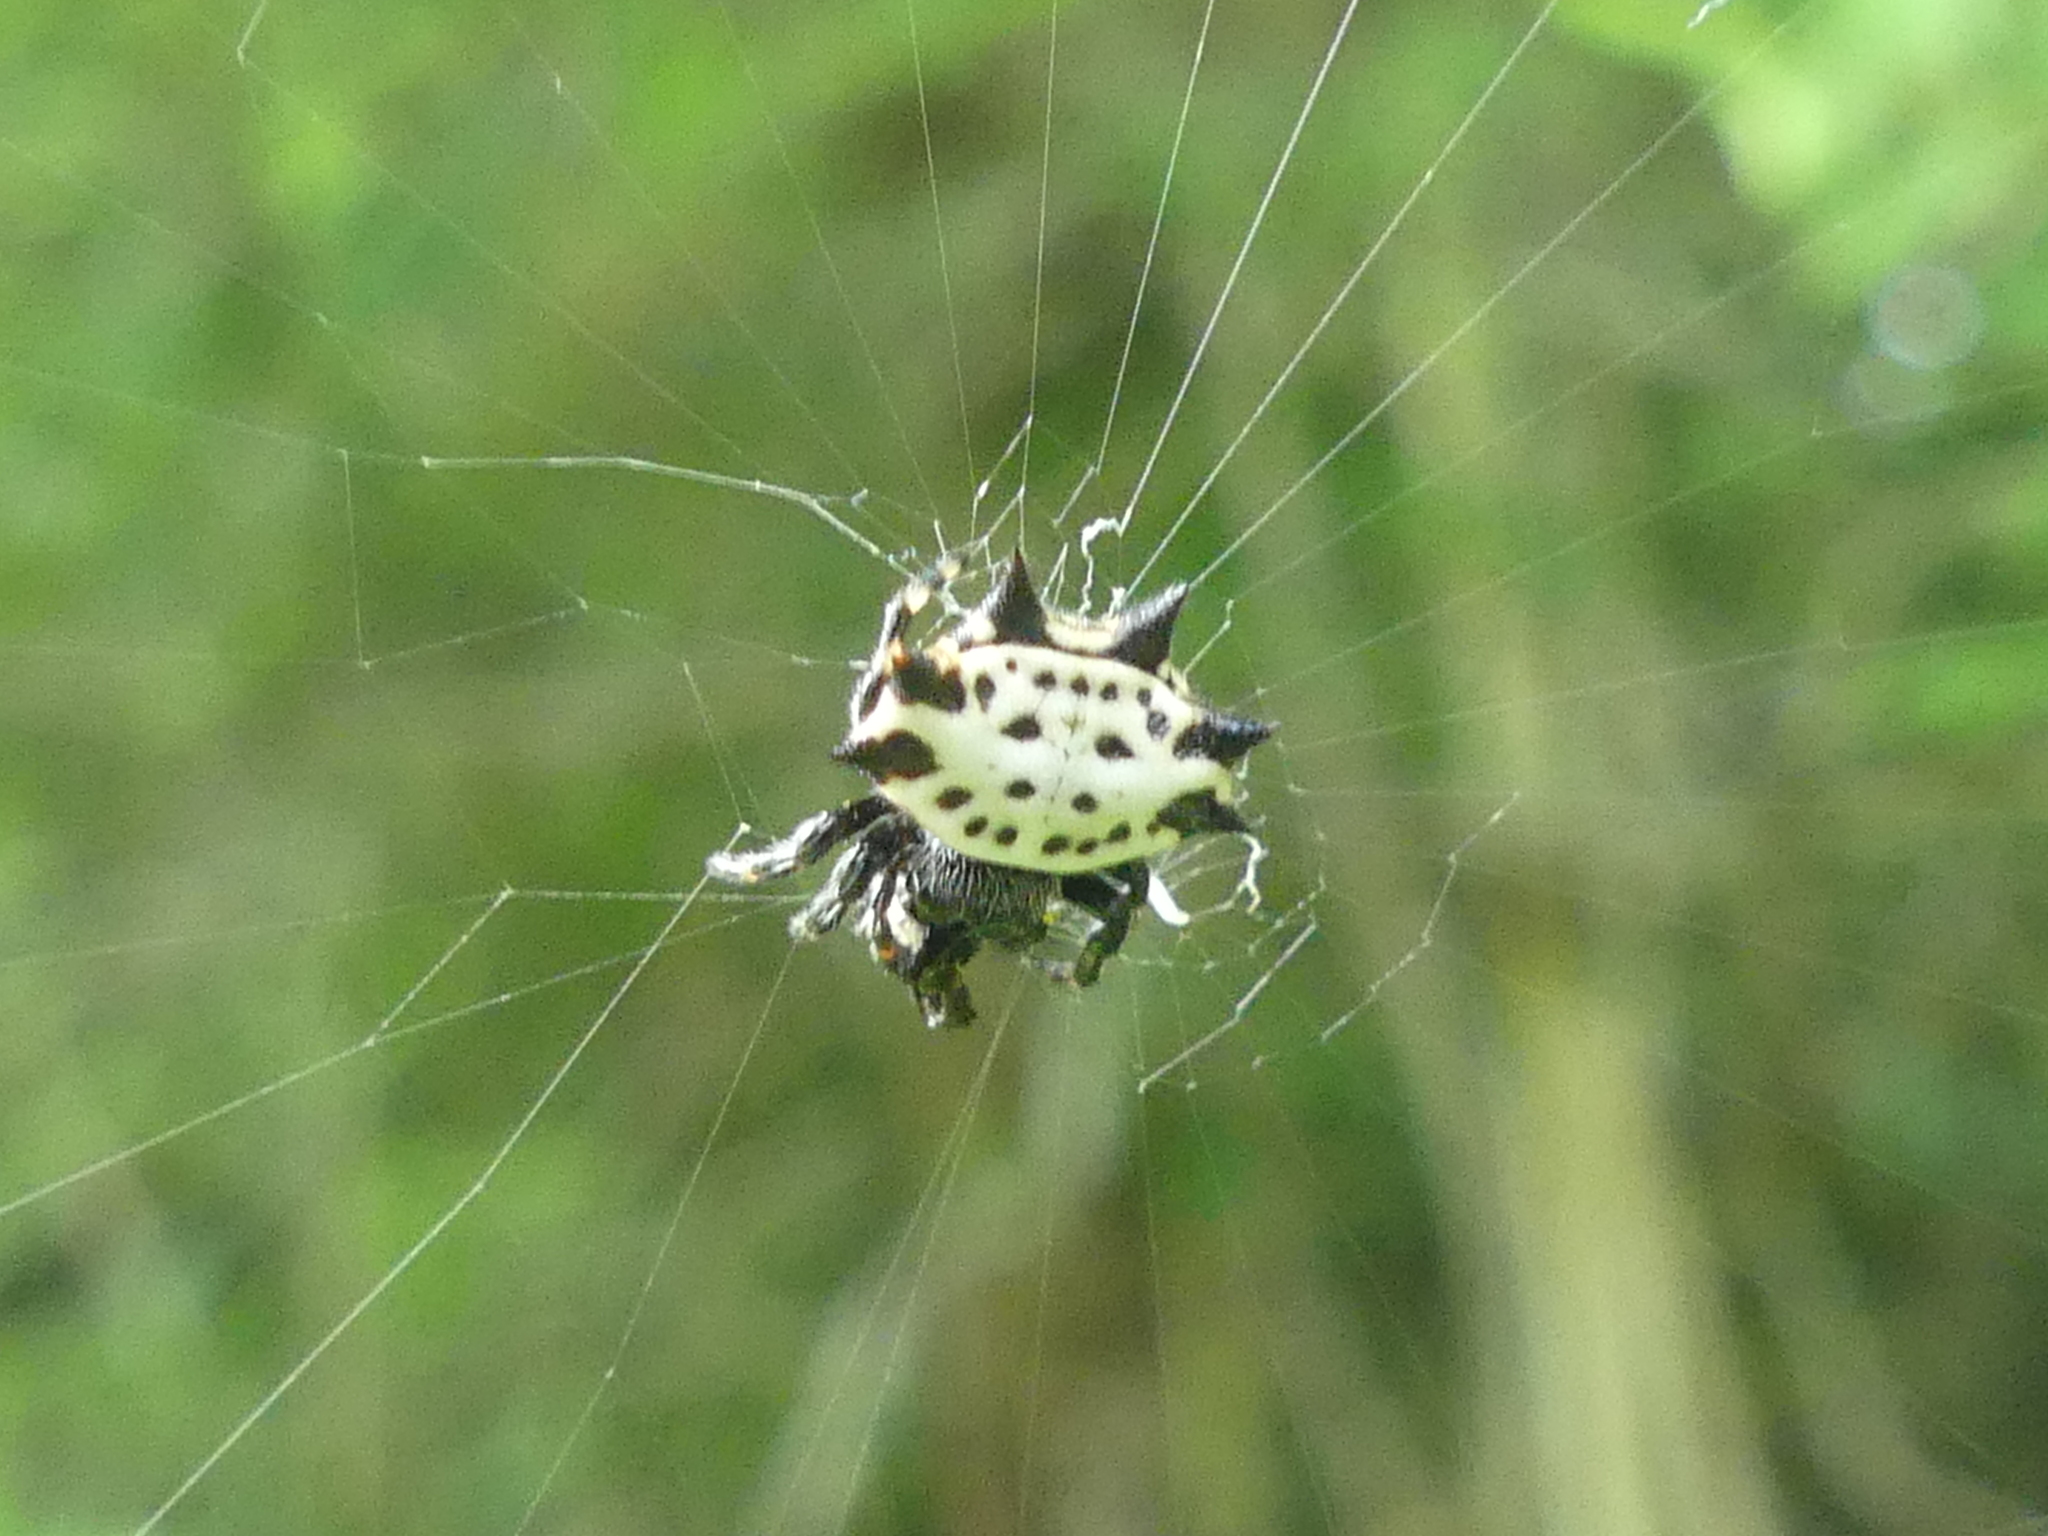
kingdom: Animalia
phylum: Arthropoda
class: Arachnida
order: Araneae
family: Araneidae
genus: Gasteracantha
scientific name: Gasteracantha cancriformis
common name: Orb weavers
